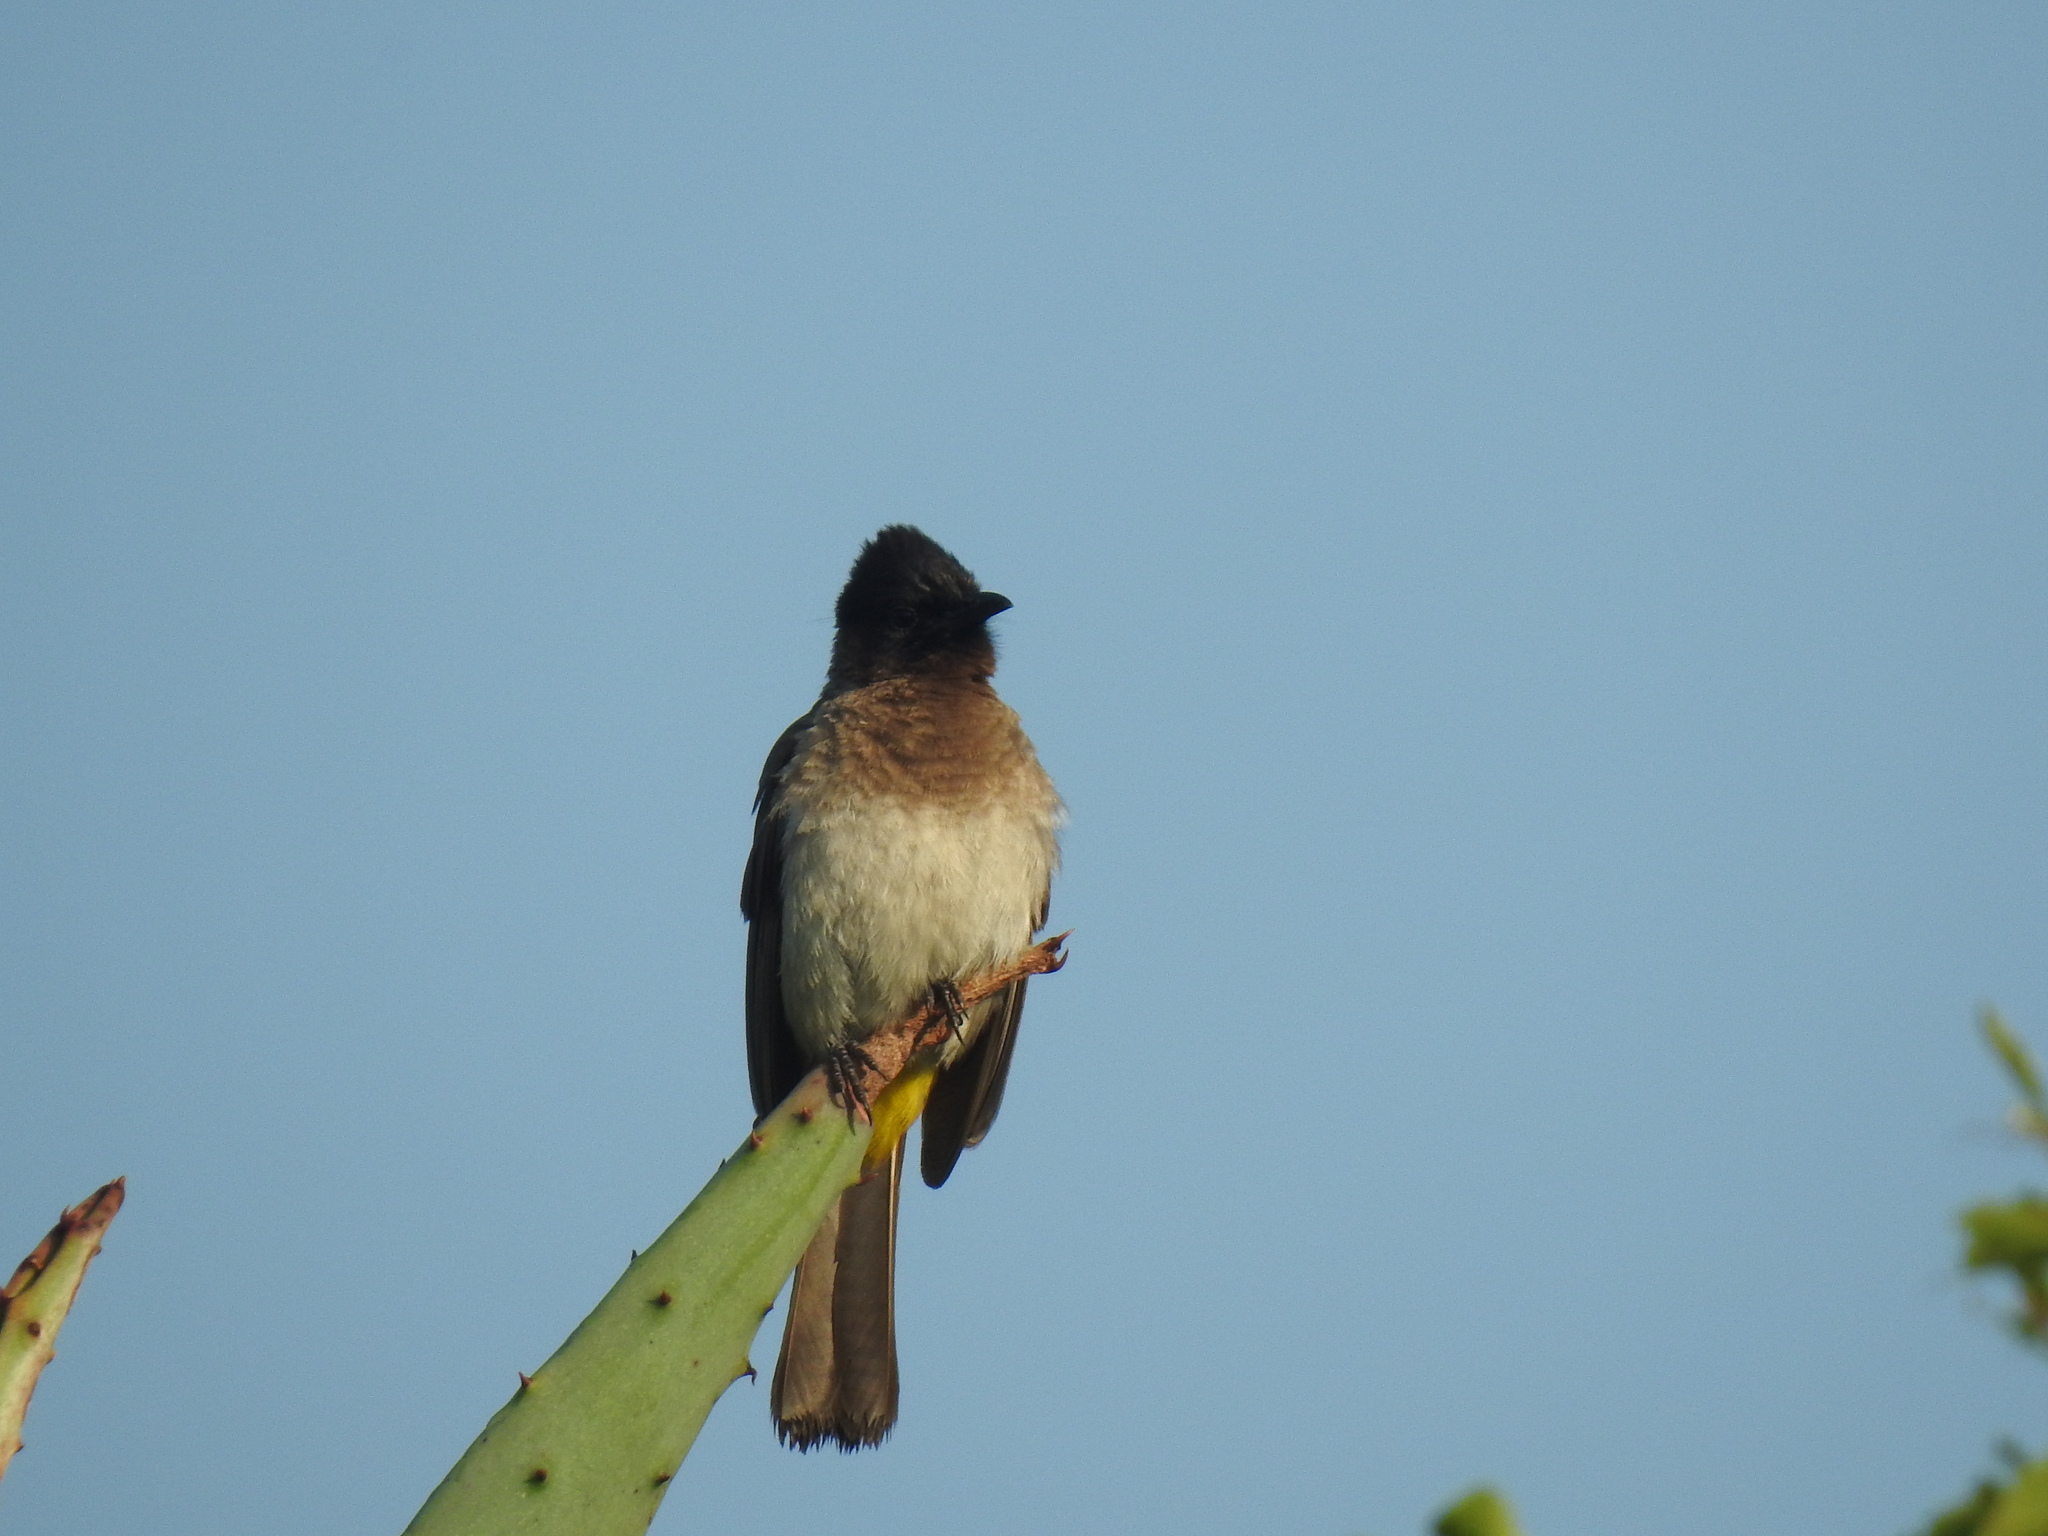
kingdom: Animalia
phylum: Chordata
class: Aves
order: Passeriformes
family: Pycnonotidae
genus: Pycnonotus
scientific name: Pycnonotus barbatus
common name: Common bulbul
